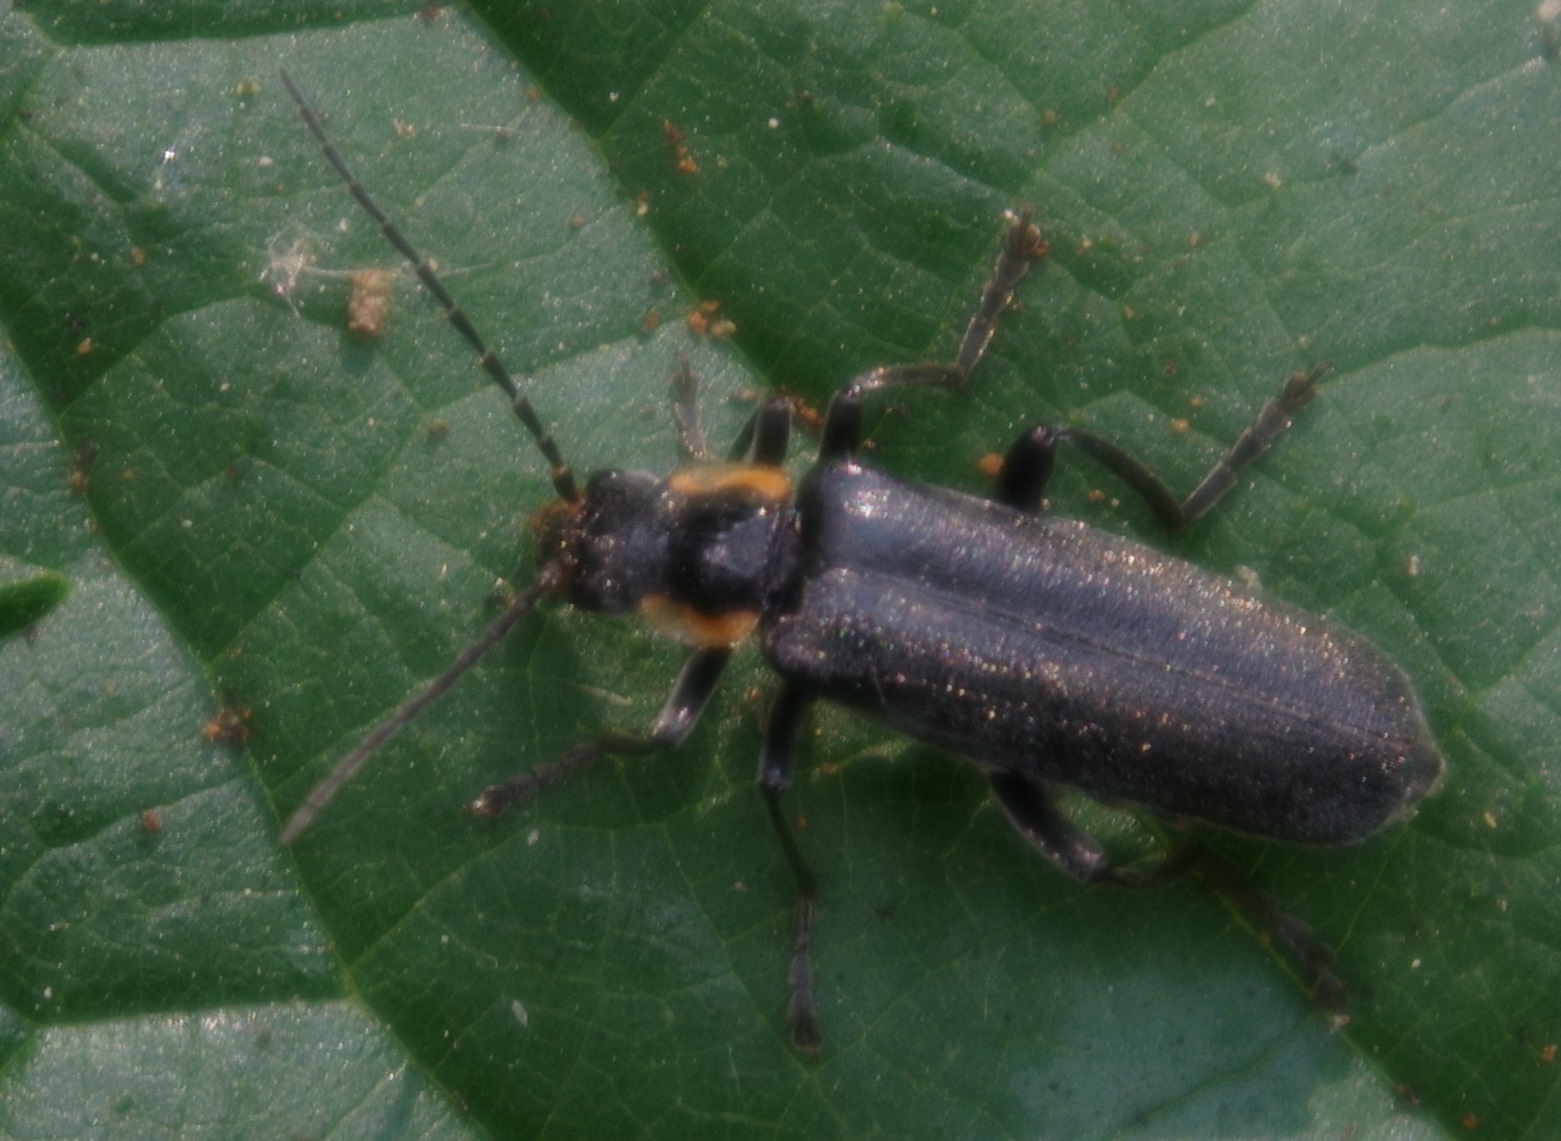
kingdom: Animalia
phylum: Arthropoda
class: Insecta
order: Coleoptera
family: Cantharidae
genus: Cantharis
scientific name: Cantharis obscura
